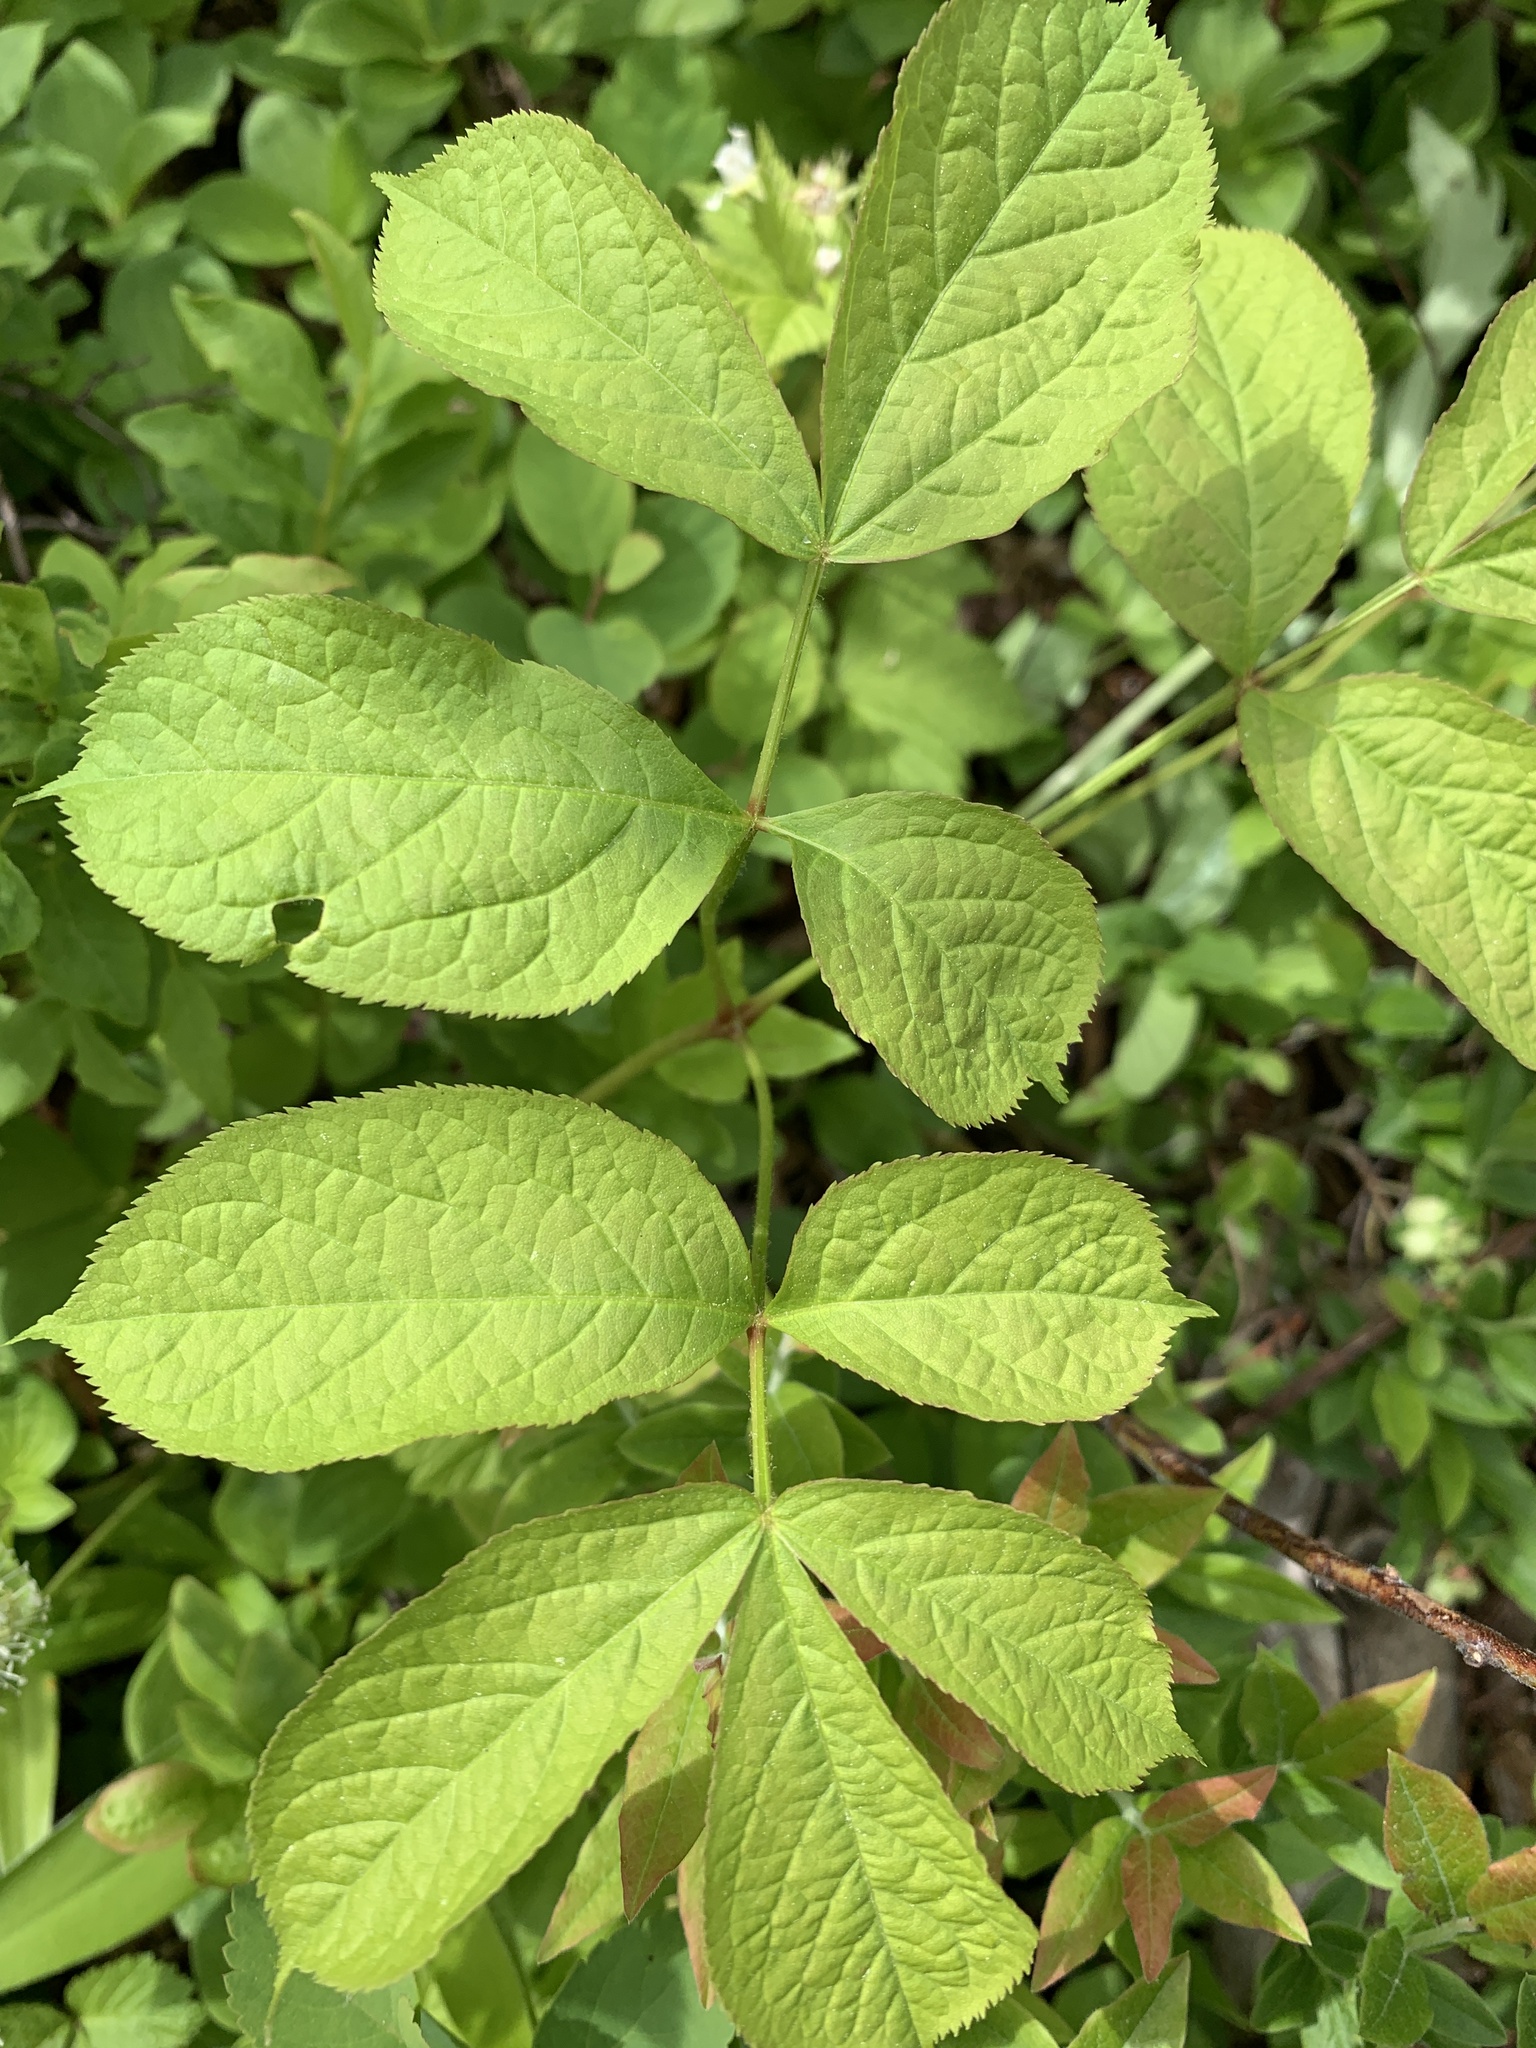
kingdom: Plantae
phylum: Tracheophyta
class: Magnoliopsida
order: Apiales
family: Araliaceae
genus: Aralia
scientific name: Aralia nudicaulis
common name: Wild sarsaparilla
